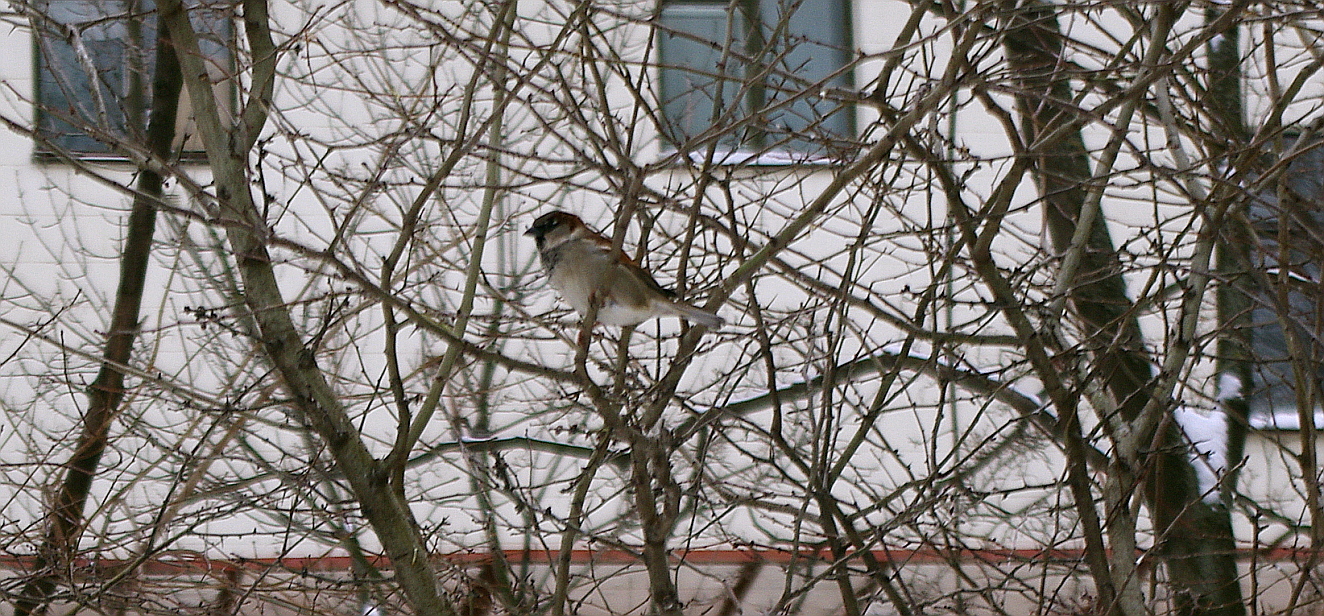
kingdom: Animalia
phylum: Chordata
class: Aves
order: Passeriformes
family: Passeridae
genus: Passer
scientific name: Passer domesticus
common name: House sparrow
